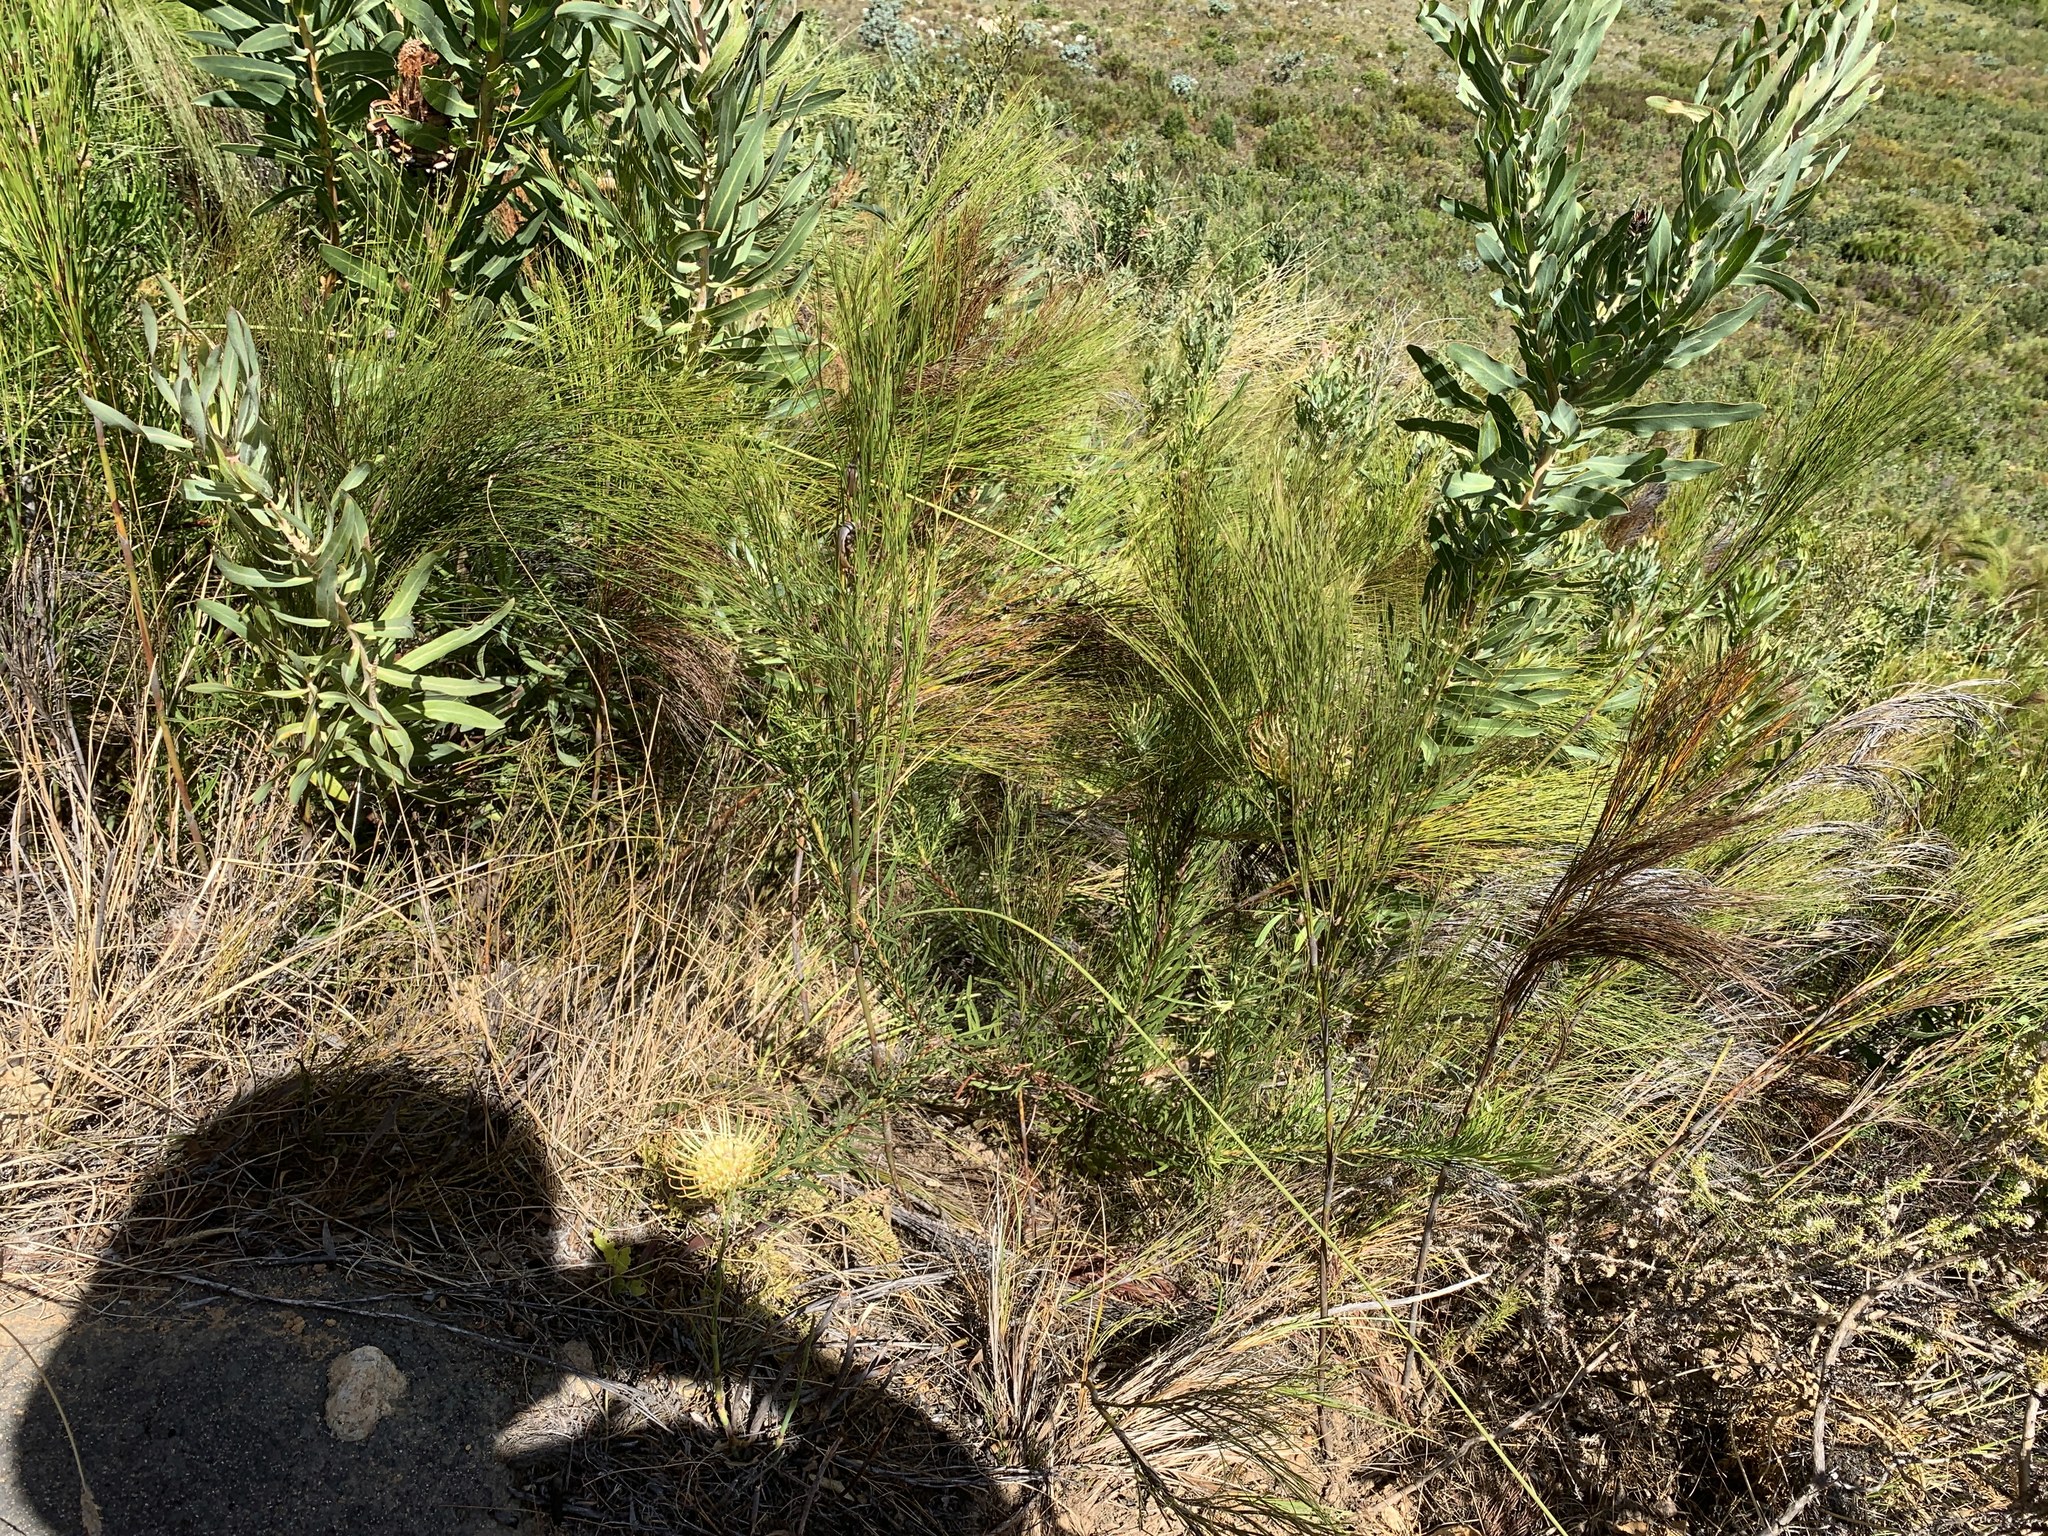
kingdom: Plantae
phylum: Tracheophyta
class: Magnoliopsida
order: Proteales
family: Proteaceae
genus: Leucospermum
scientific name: Leucospermum lineare
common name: Needle-leaf pincushion
